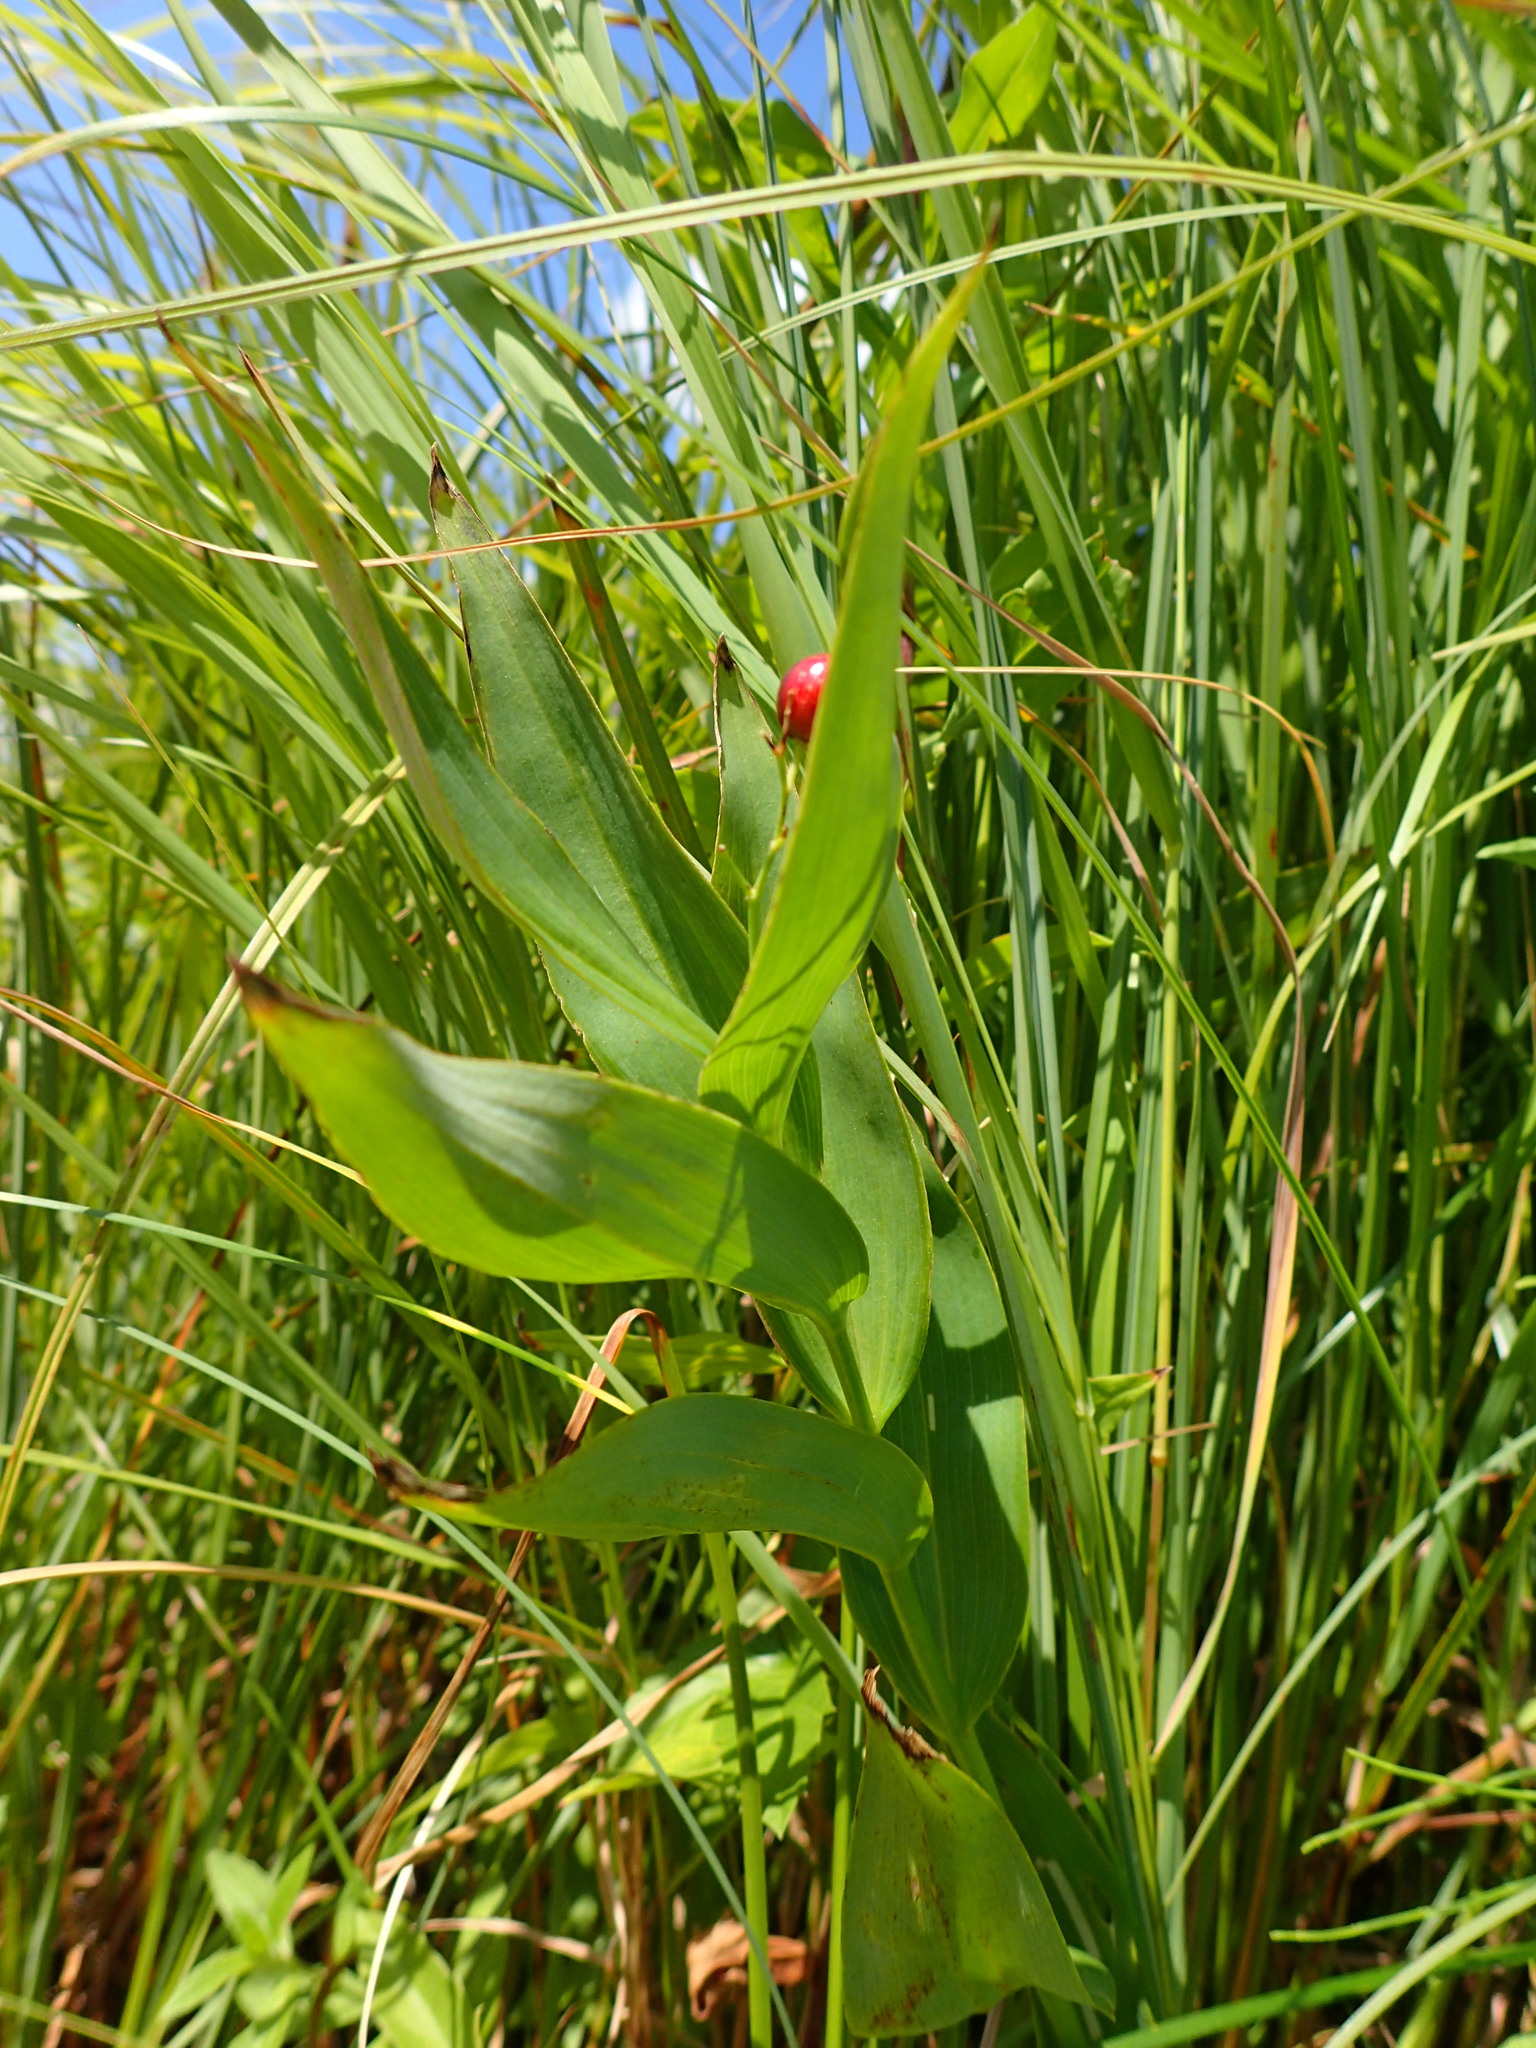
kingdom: Plantae
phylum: Tracheophyta
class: Liliopsida
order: Asparagales
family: Asparagaceae
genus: Maianthemum
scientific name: Maianthemum stellatum
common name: Little false solomon's seal
